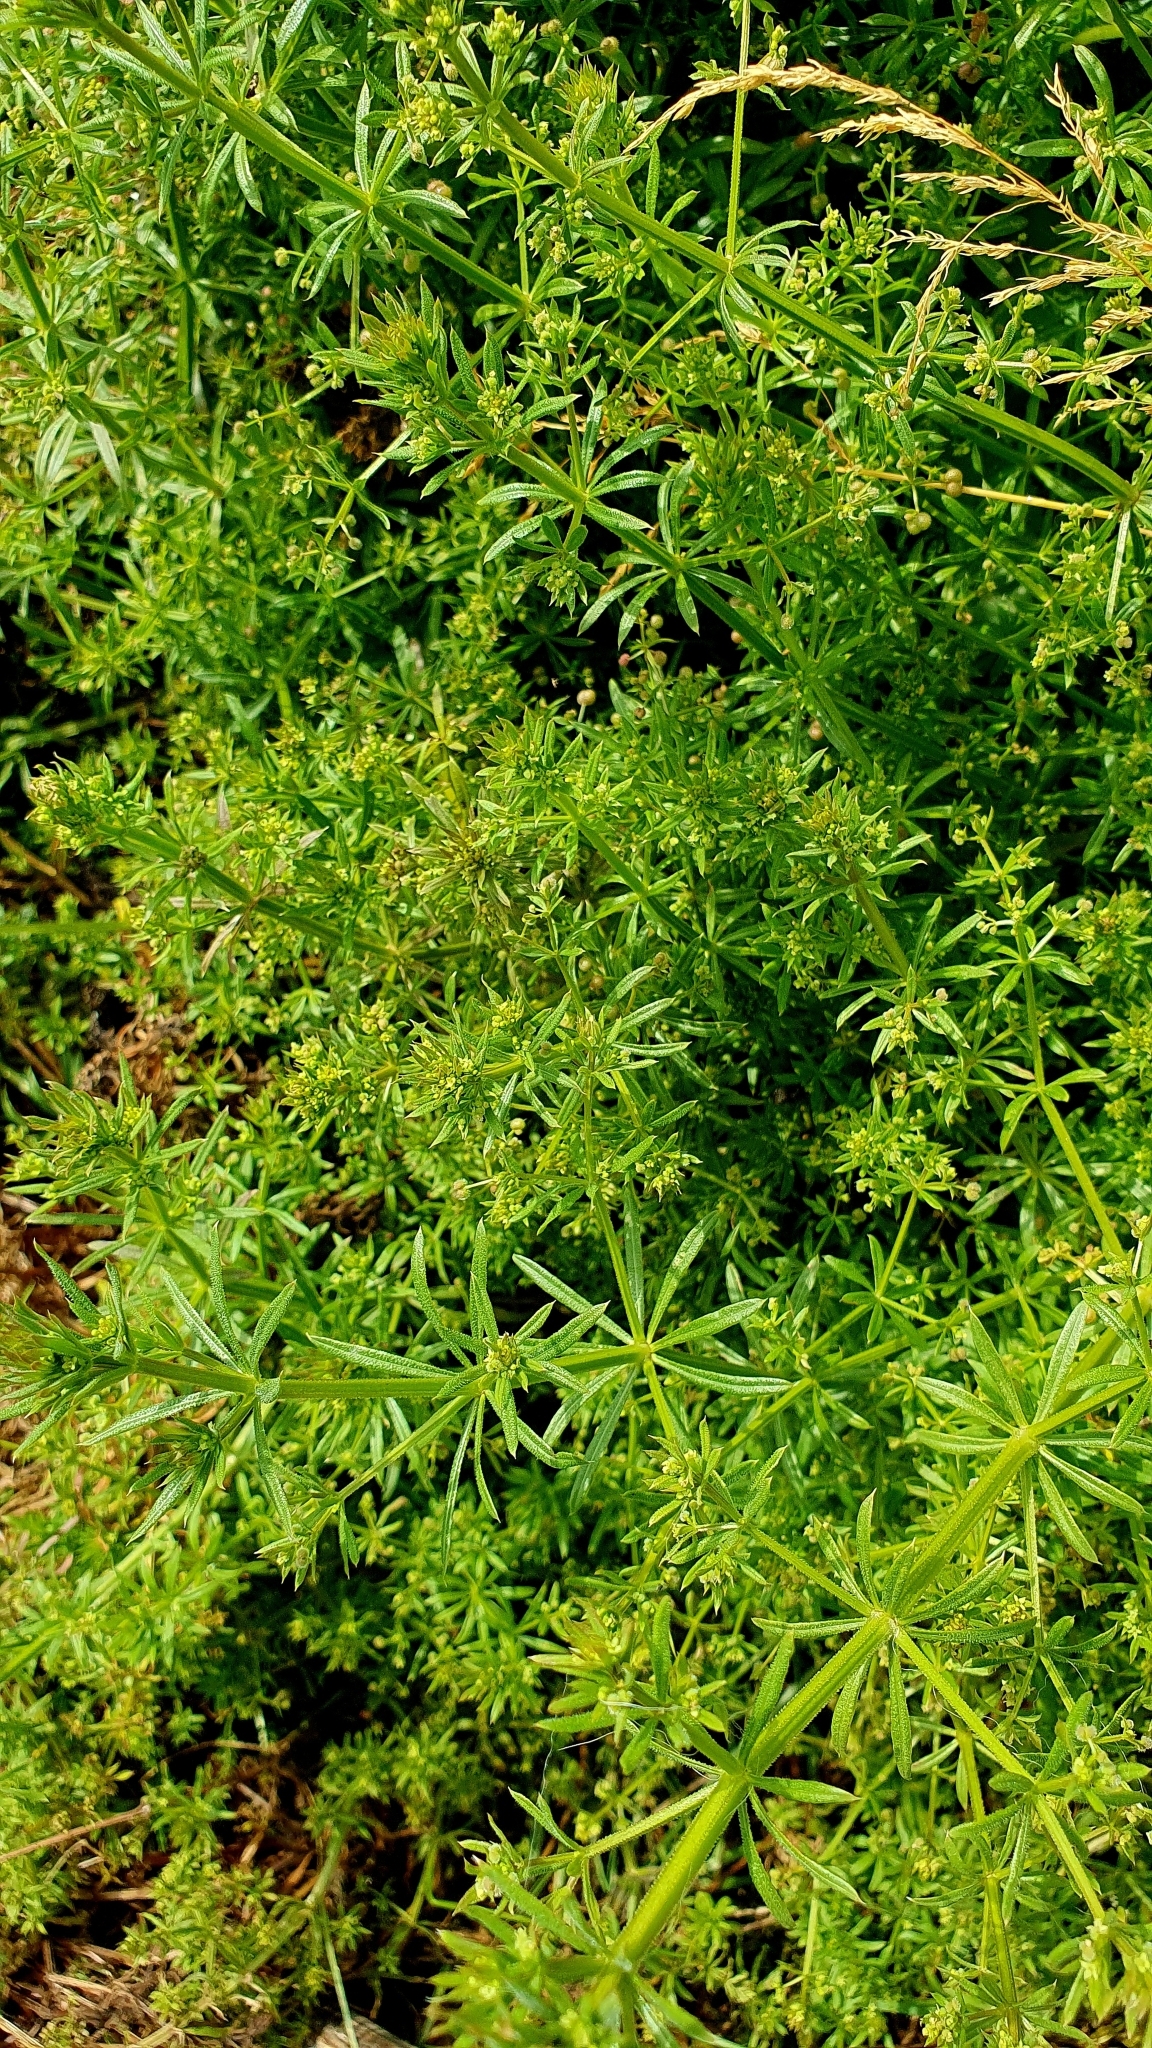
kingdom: Plantae
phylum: Tracheophyta
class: Magnoliopsida
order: Gentianales
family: Rubiaceae
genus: Galium
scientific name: Galium
